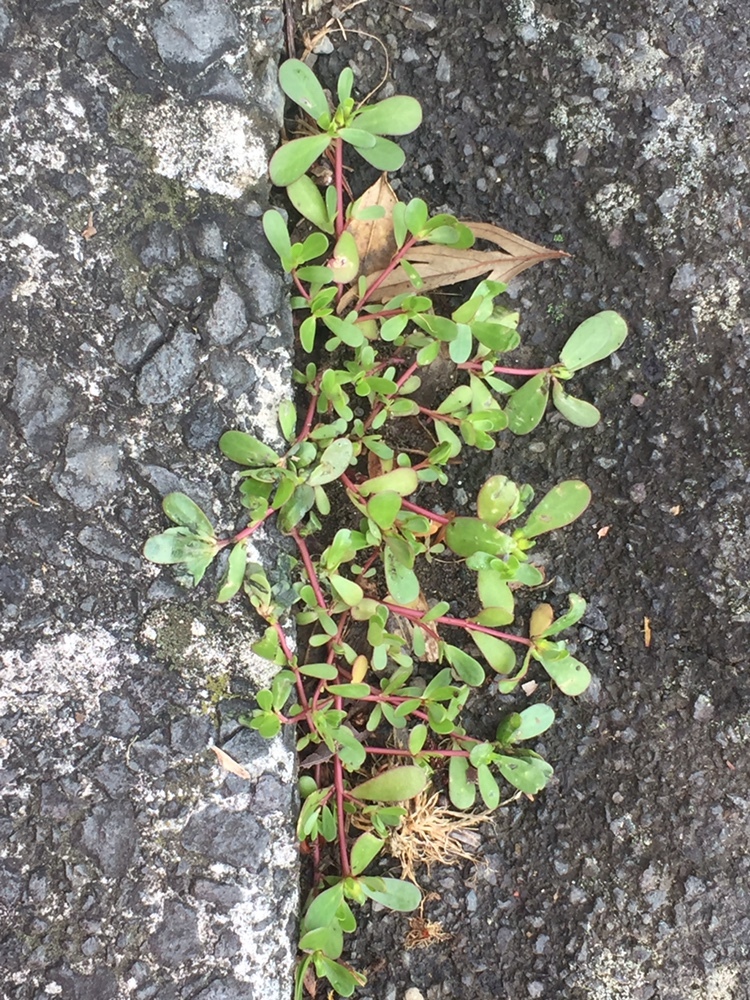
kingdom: Plantae
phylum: Tracheophyta
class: Magnoliopsida
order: Caryophyllales
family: Portulacaceae
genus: Portulaca
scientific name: Portulaca oleracea
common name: Common purslane
